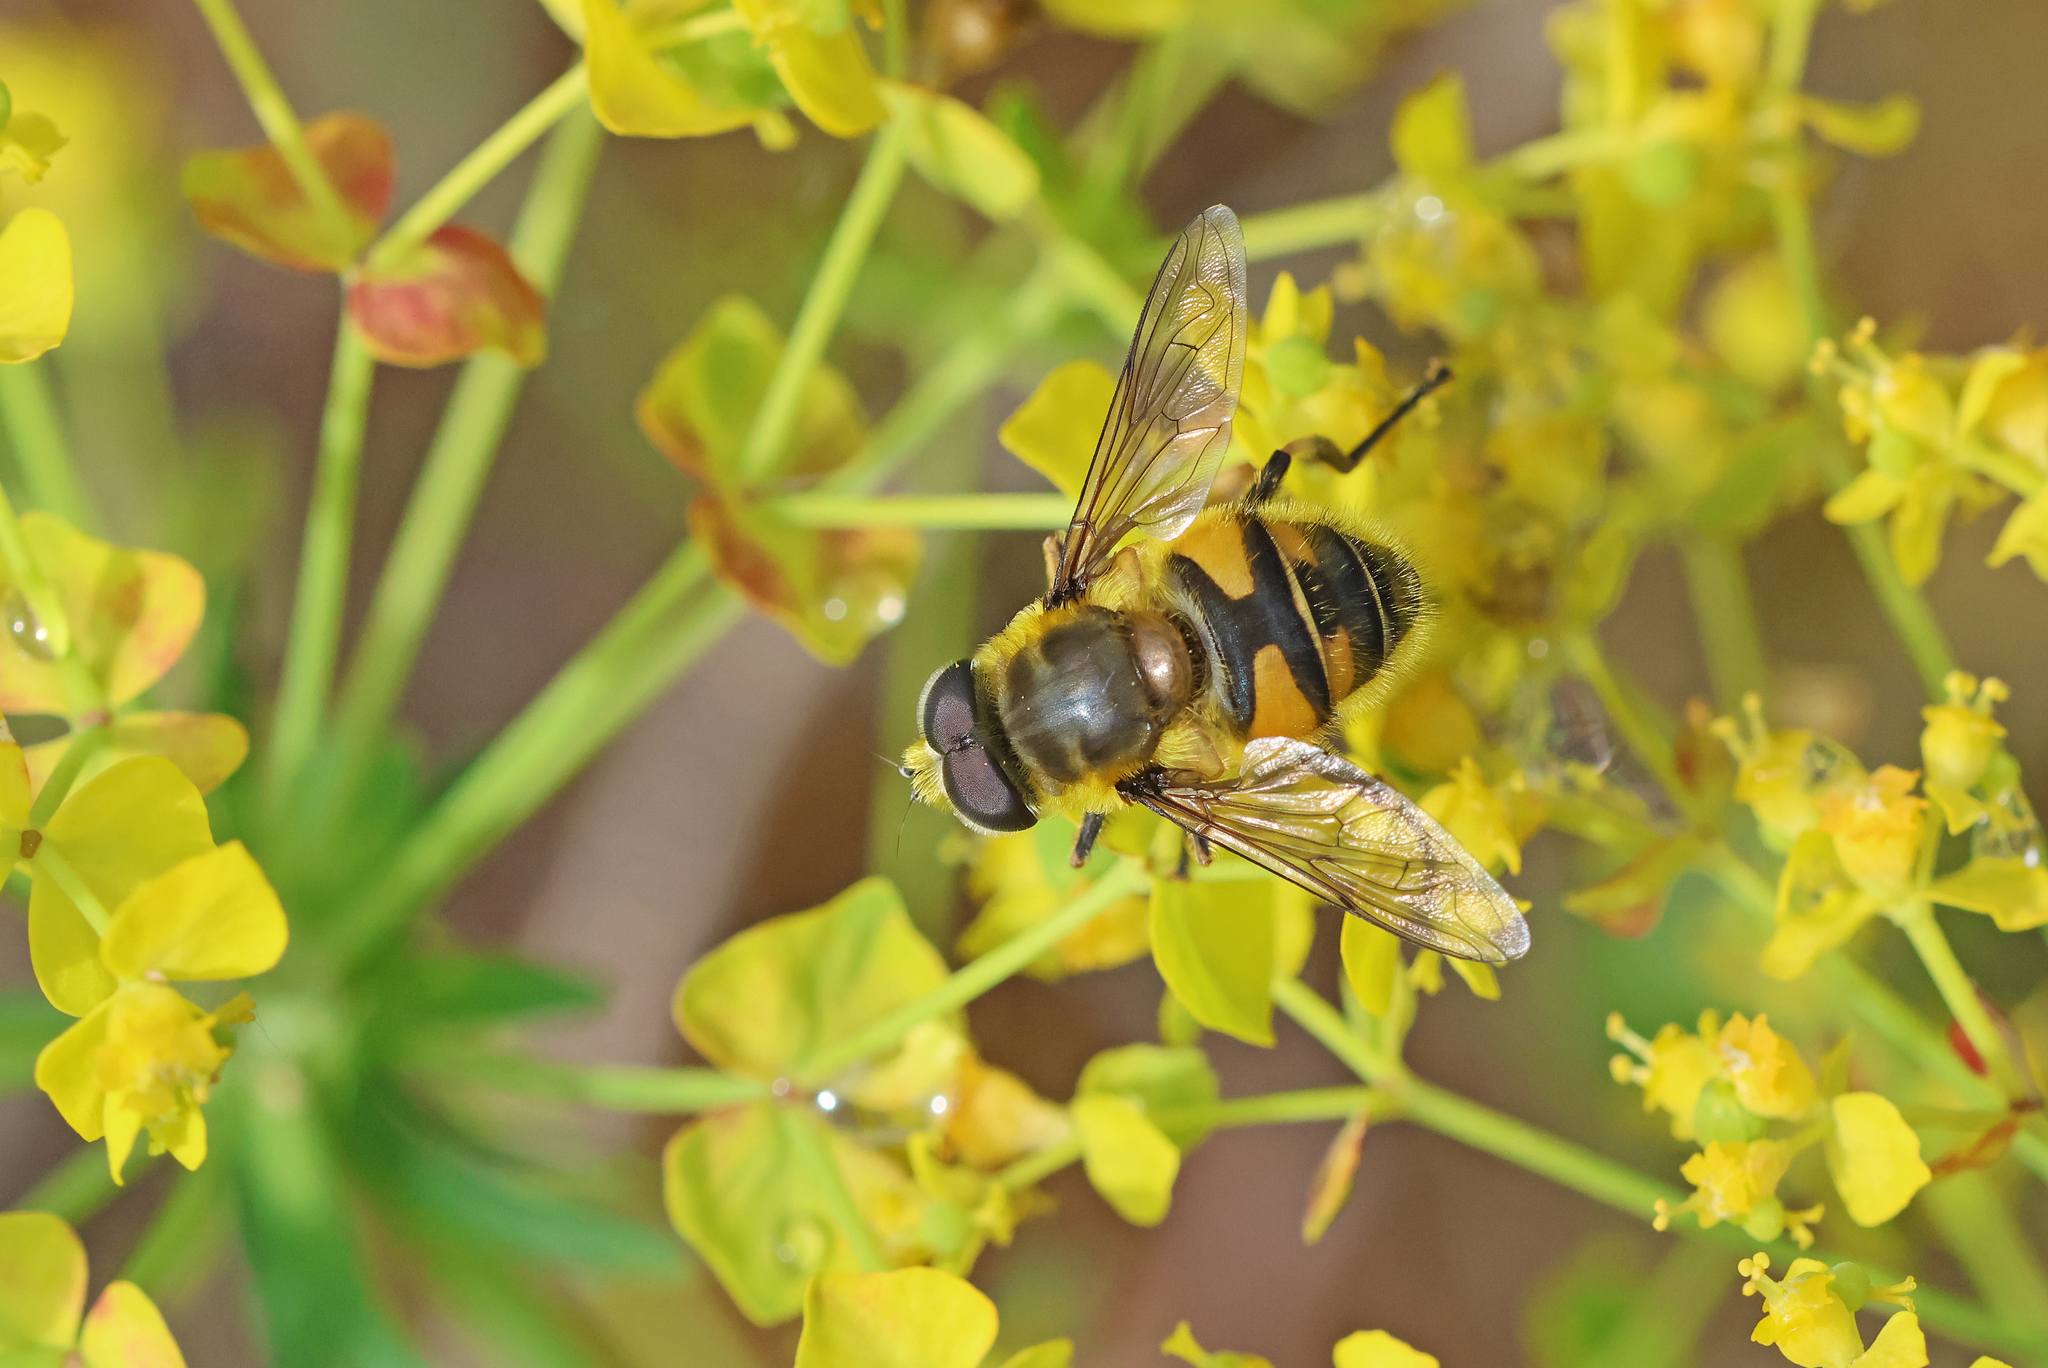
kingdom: Animalia
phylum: Arthropoda
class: Insecta
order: Diptera
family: Syrphidae
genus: Myathropa
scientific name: Myathropa florea
